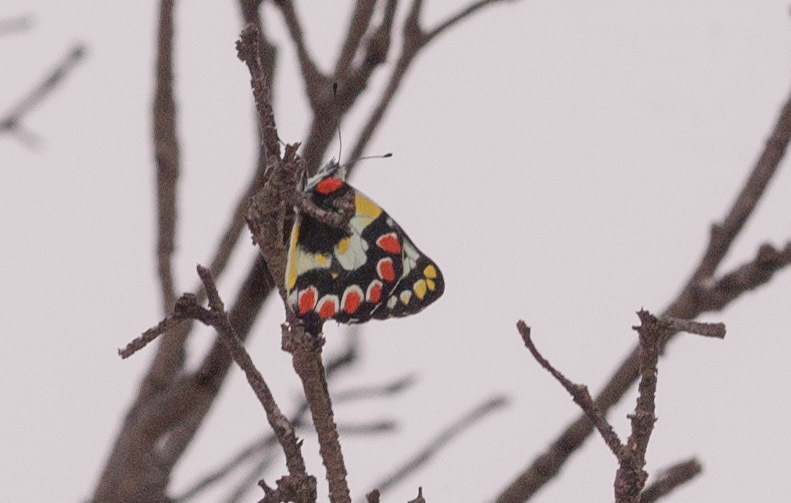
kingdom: Animalia
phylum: Arthropoda
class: Insecta
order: Lepidoptera
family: Pieridae
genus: Delias
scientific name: Delias aganippe
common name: Red-spotted jezebel
